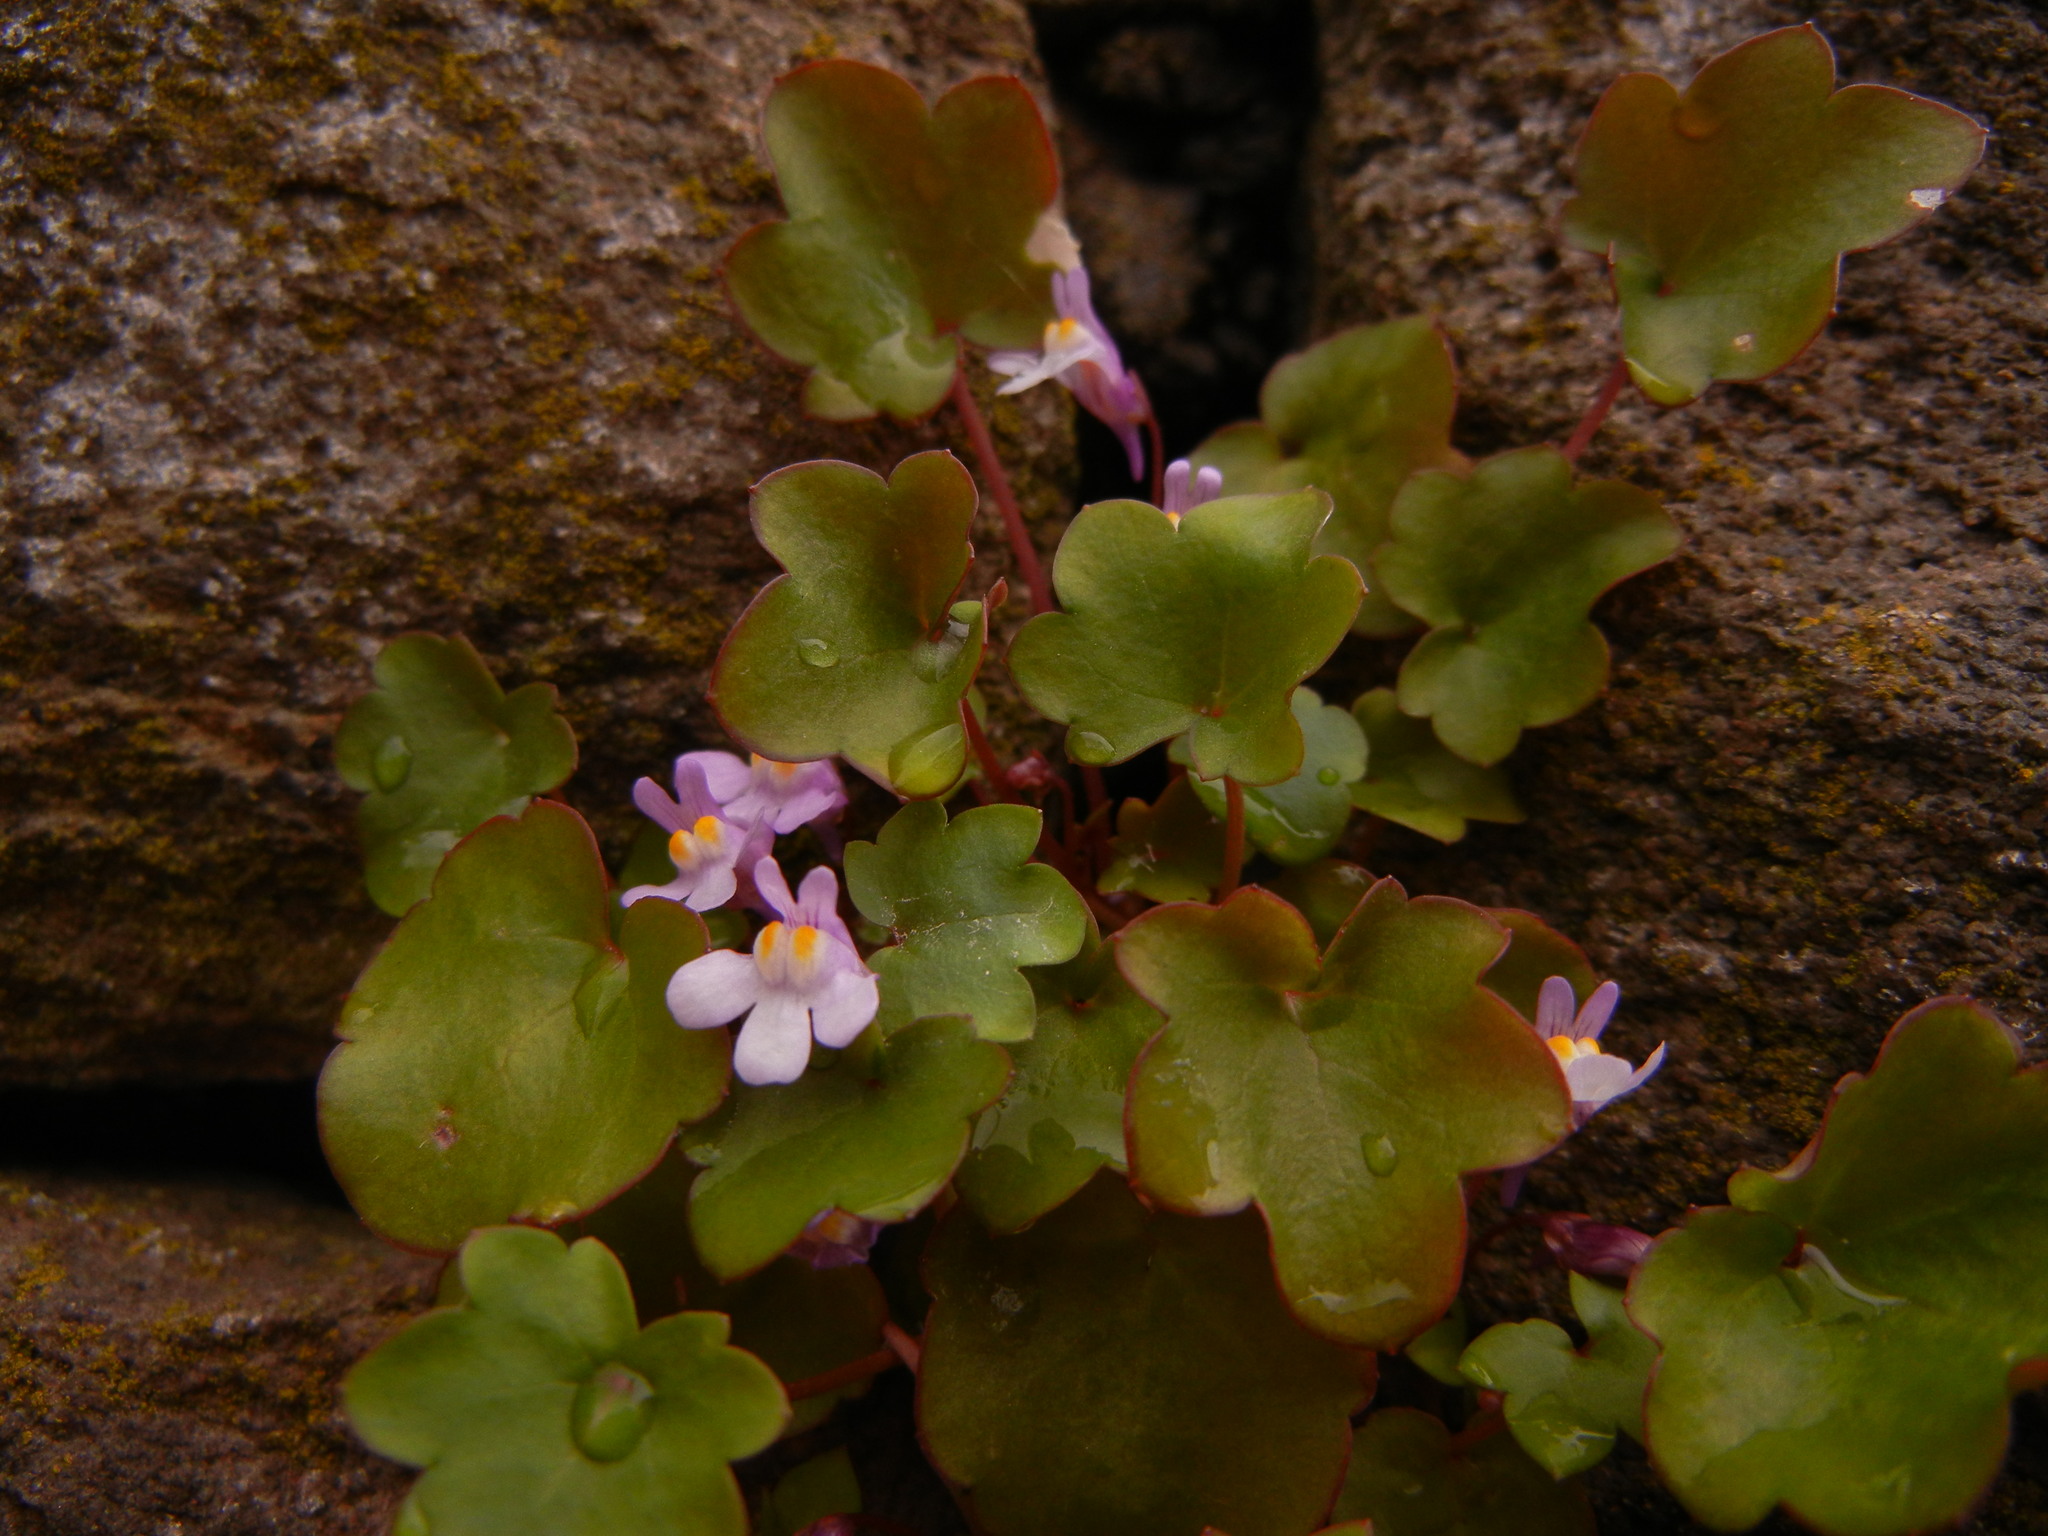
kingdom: Plantae
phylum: Tracheophyta
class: Magnoliopsida
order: Lamiales
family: Plantaginaceae
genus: Cymbalaria
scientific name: Cymbalaria muralis
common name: Ivy-leaved toadflax
